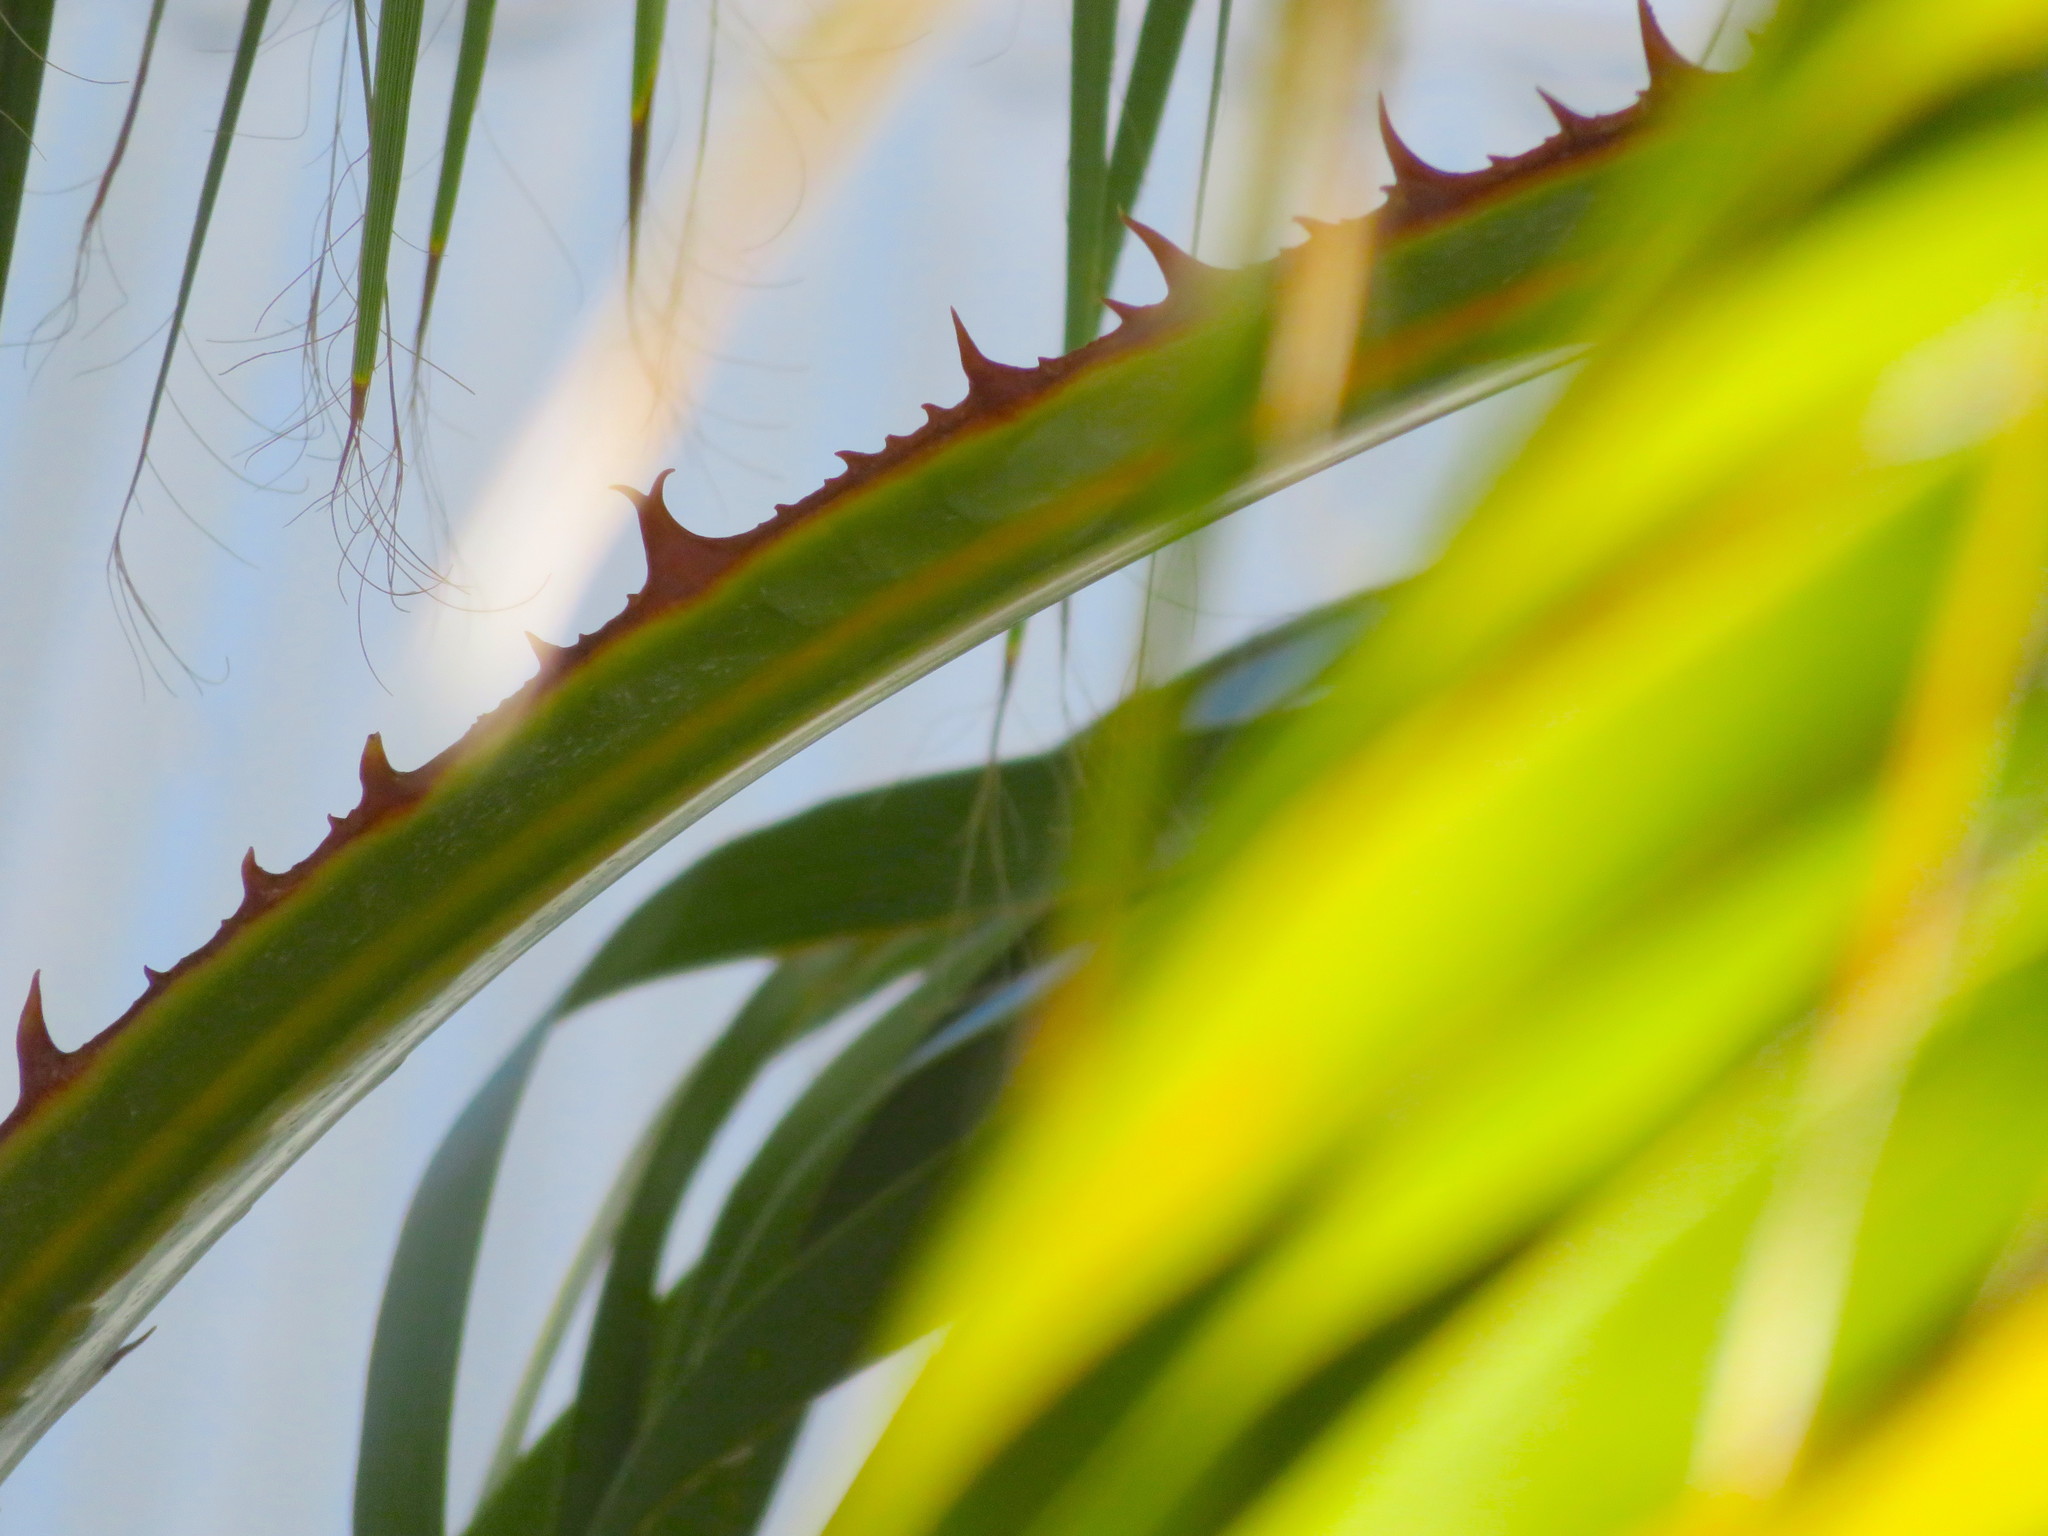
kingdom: Plantae
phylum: Tracheophyta
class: Liliopsida
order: Arecales
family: Arecaceae
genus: Washingtonia
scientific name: Washingtonia robusta
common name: Mexican fan palm
